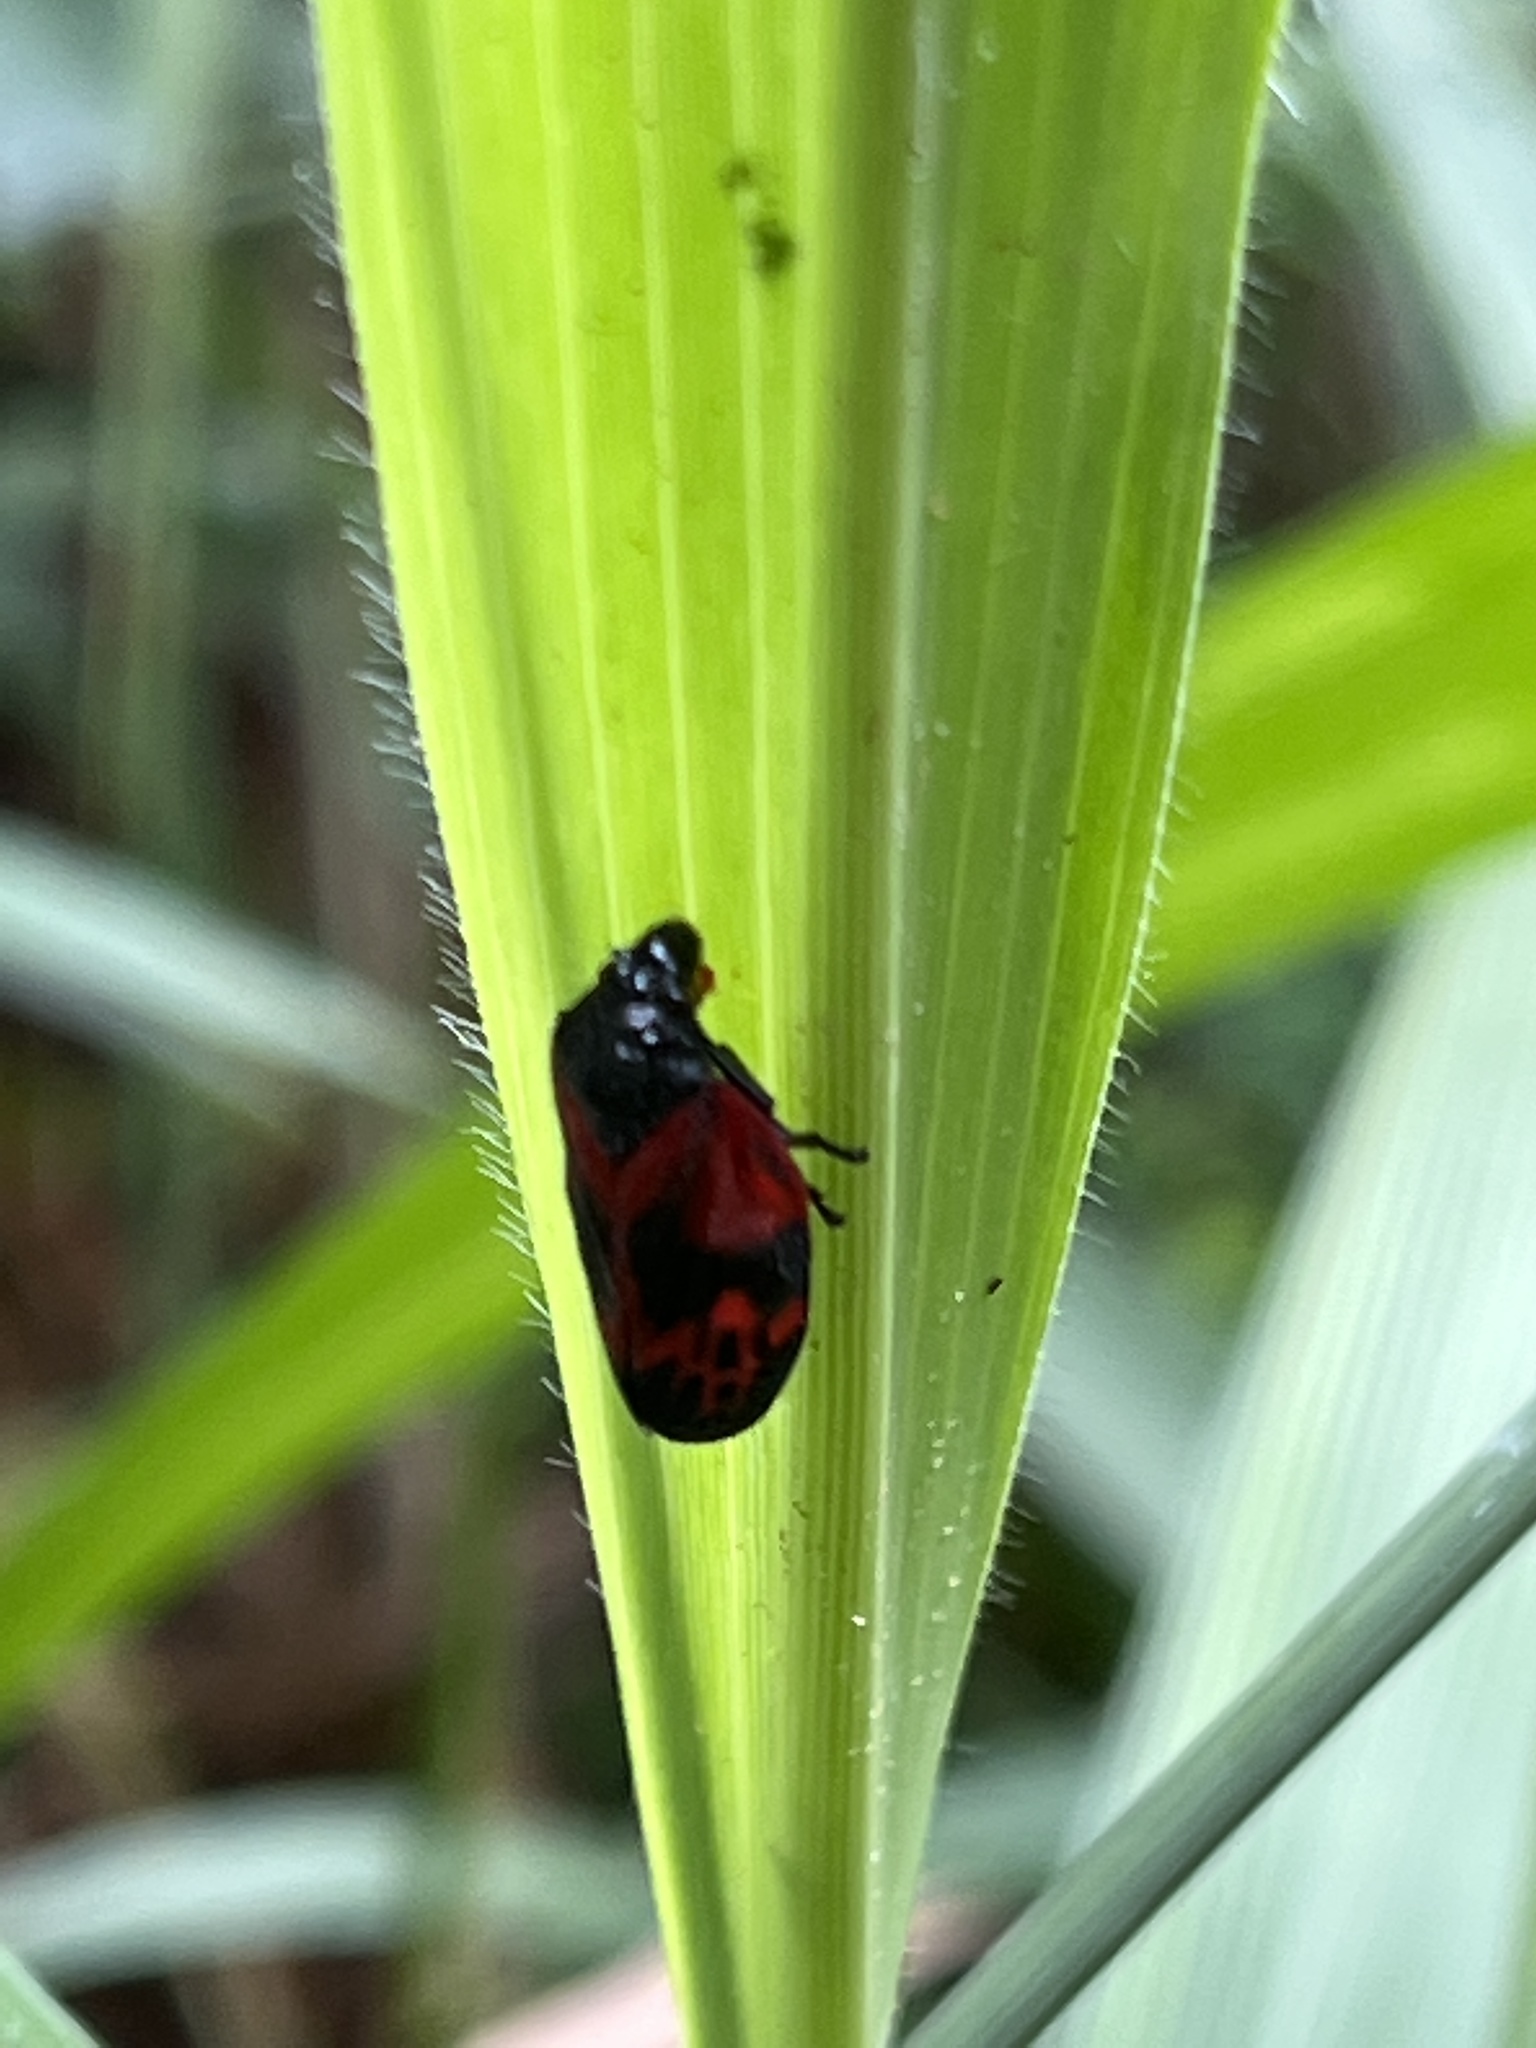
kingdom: Animalia
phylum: Arthropoda
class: Insecta
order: Hemiptera
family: Cercopidae
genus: Locris
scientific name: Locris cardinalis
